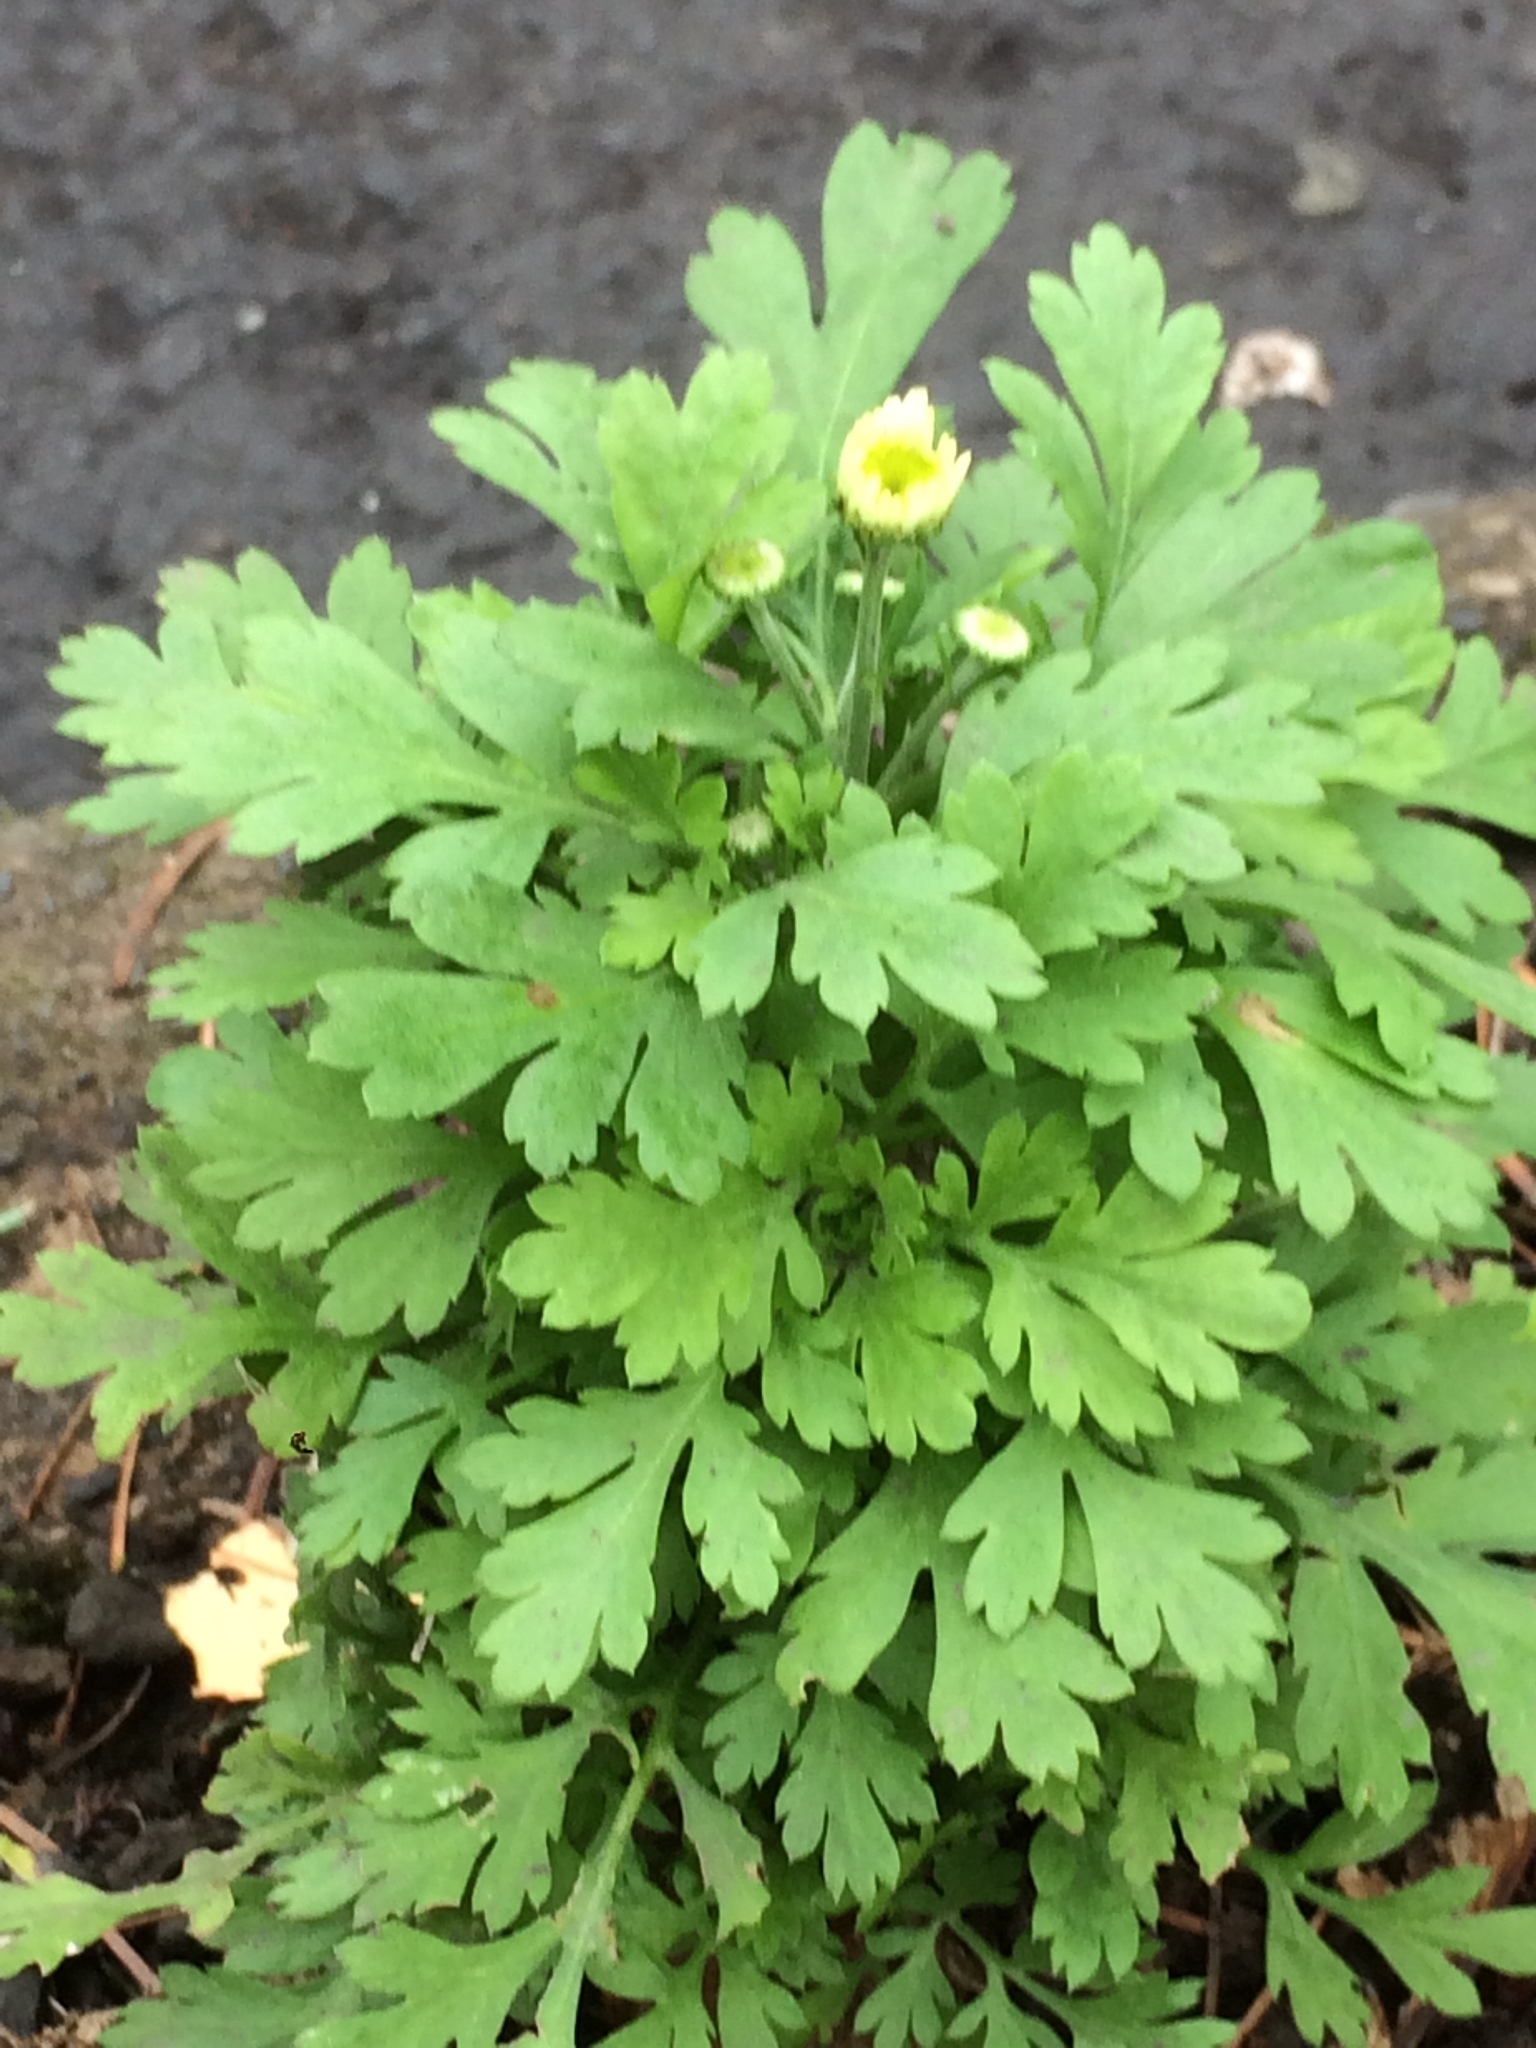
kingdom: Plantae
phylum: Tracheophyta
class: Magnoliopsida
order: Asterales
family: Asteraceae
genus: Tanacetum
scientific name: Tanacetum parthenium
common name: Feverfew
